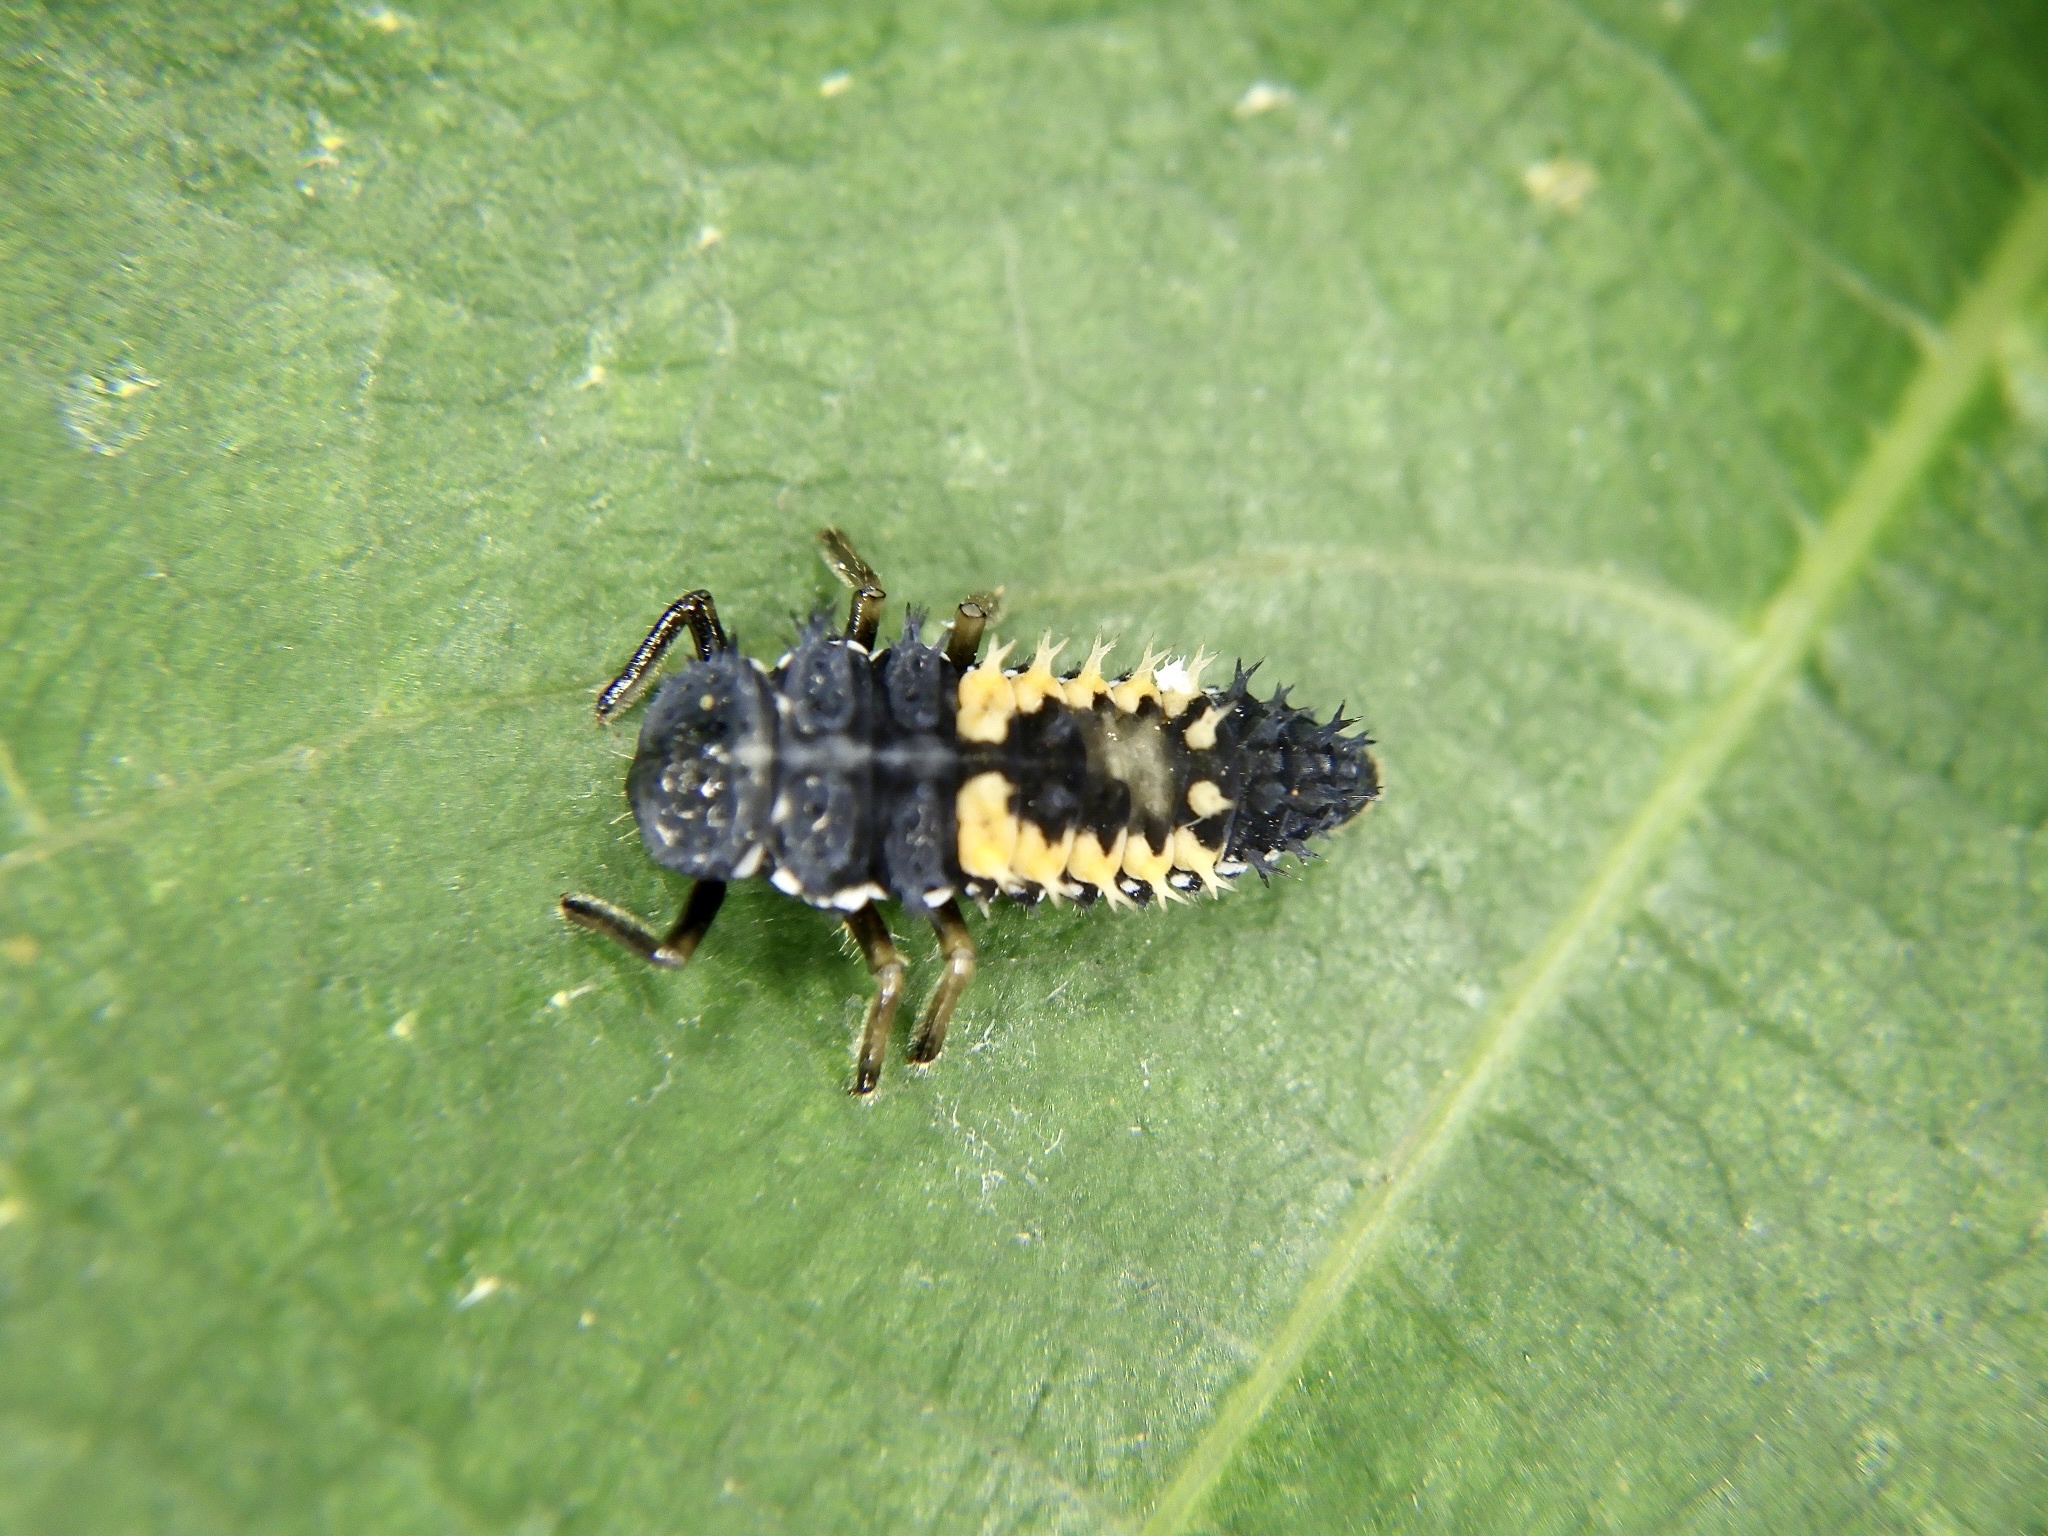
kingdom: Animalia
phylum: Arthropoda
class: Insecta
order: Coleoptera
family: Coccinellidae
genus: Harmonia
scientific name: Harmonia axyridis
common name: Harlequin ladybird
